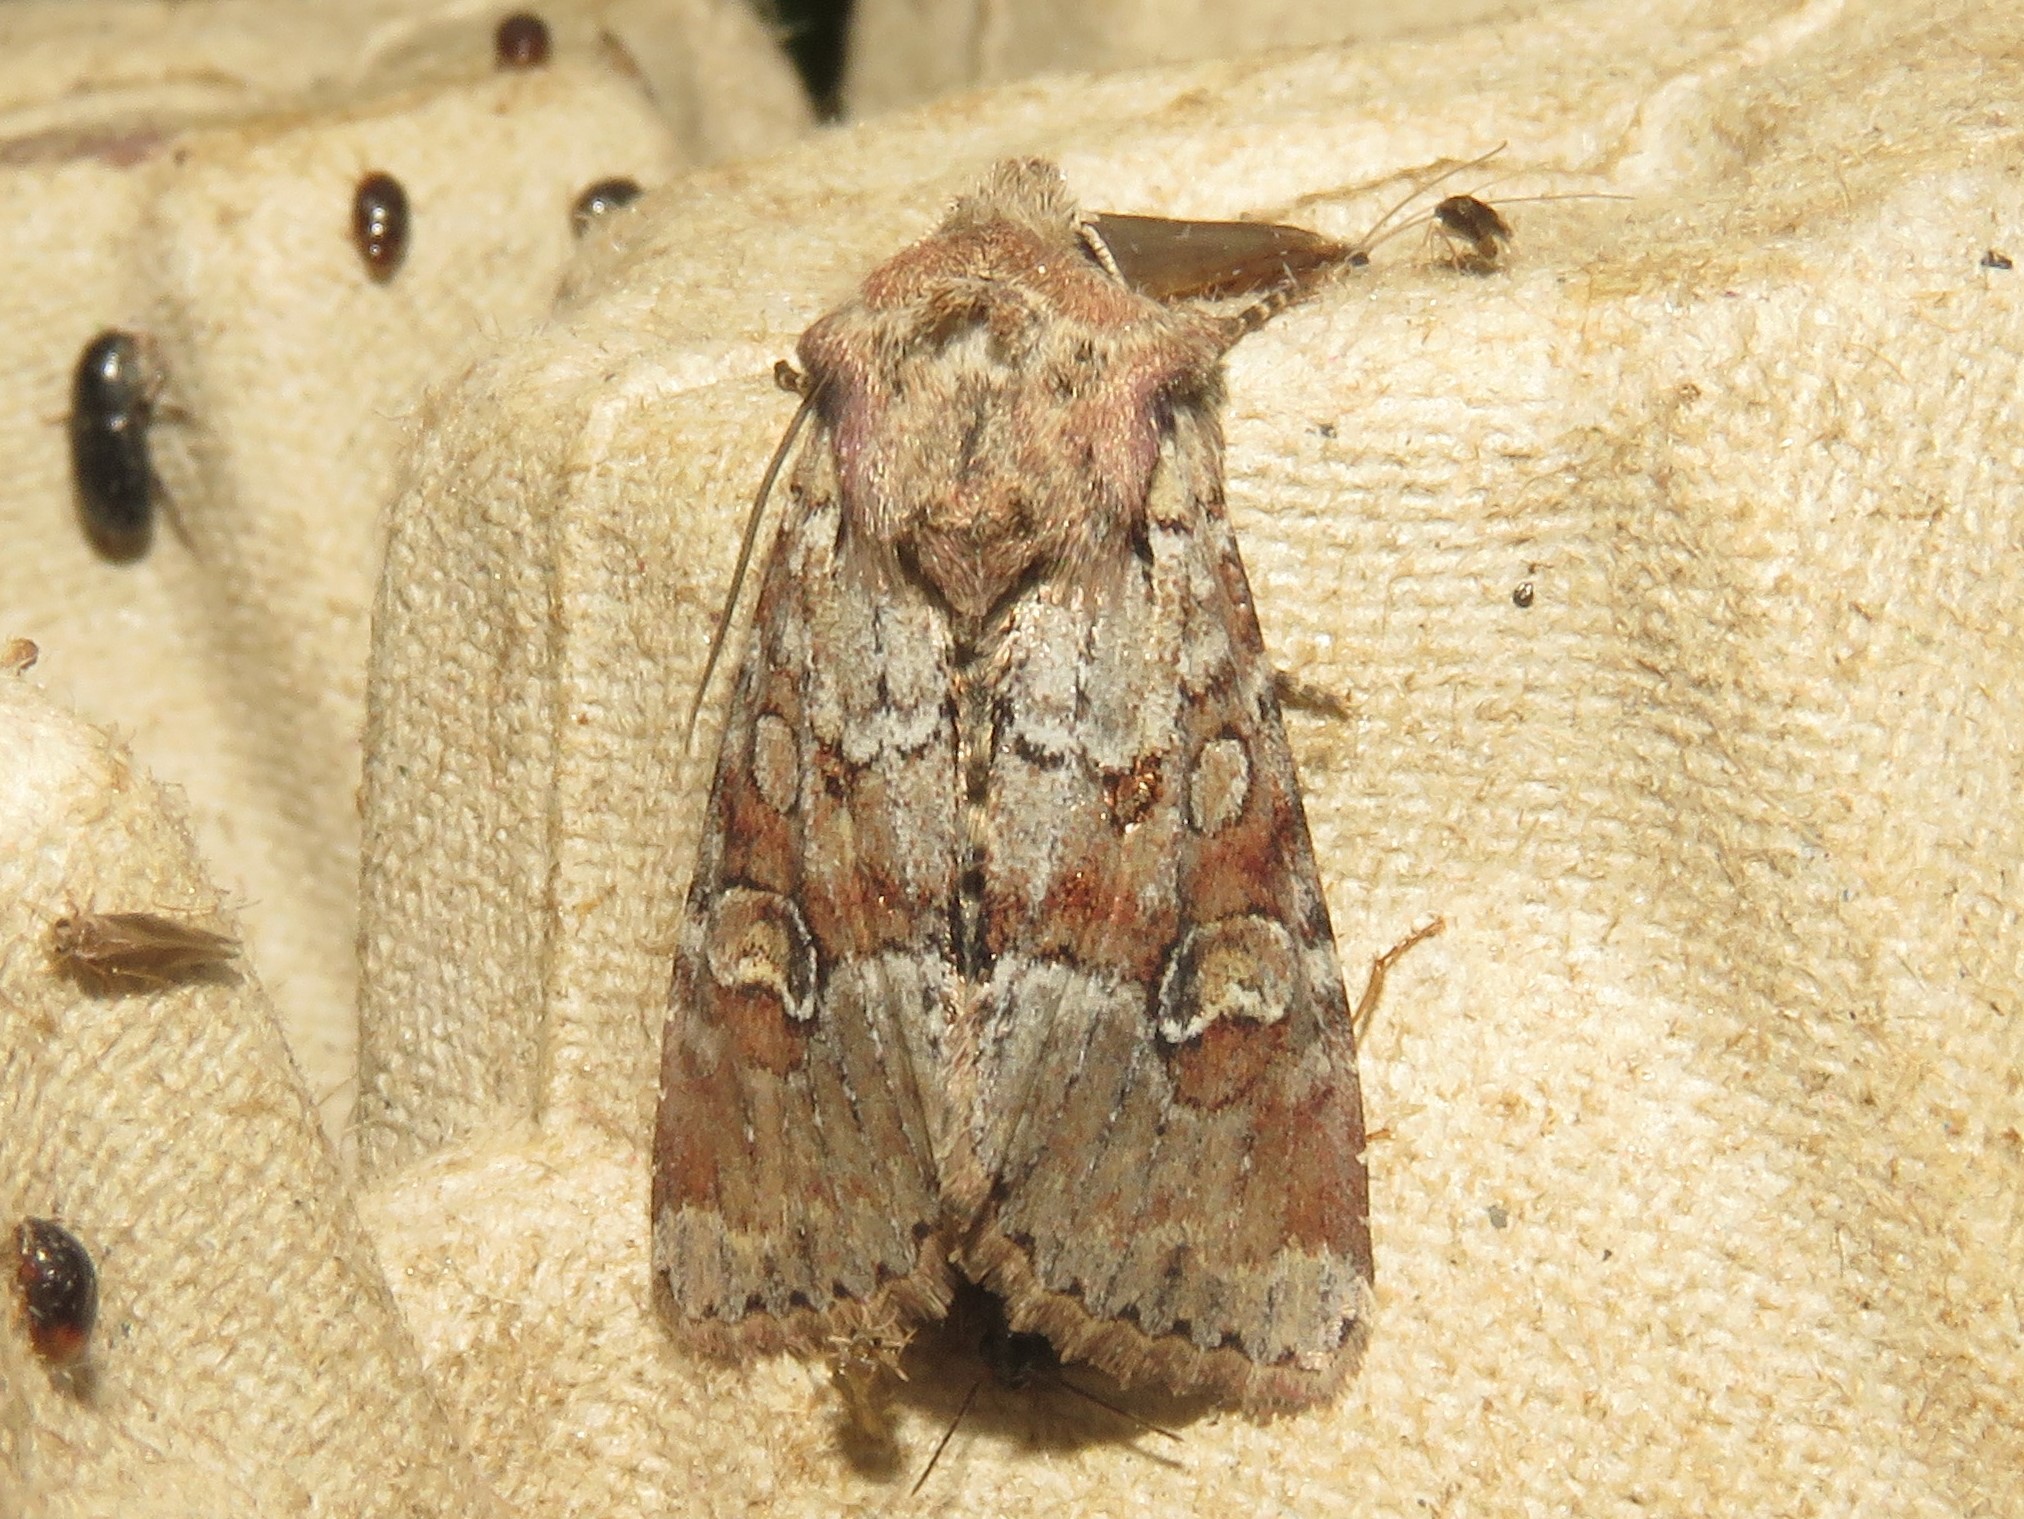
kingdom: Animalia
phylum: Arthropoda
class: Insecta
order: Lepidoptera
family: Noctuidae
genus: Apamea
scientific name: Apamea sordens
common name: Rustic shoulder-knot
